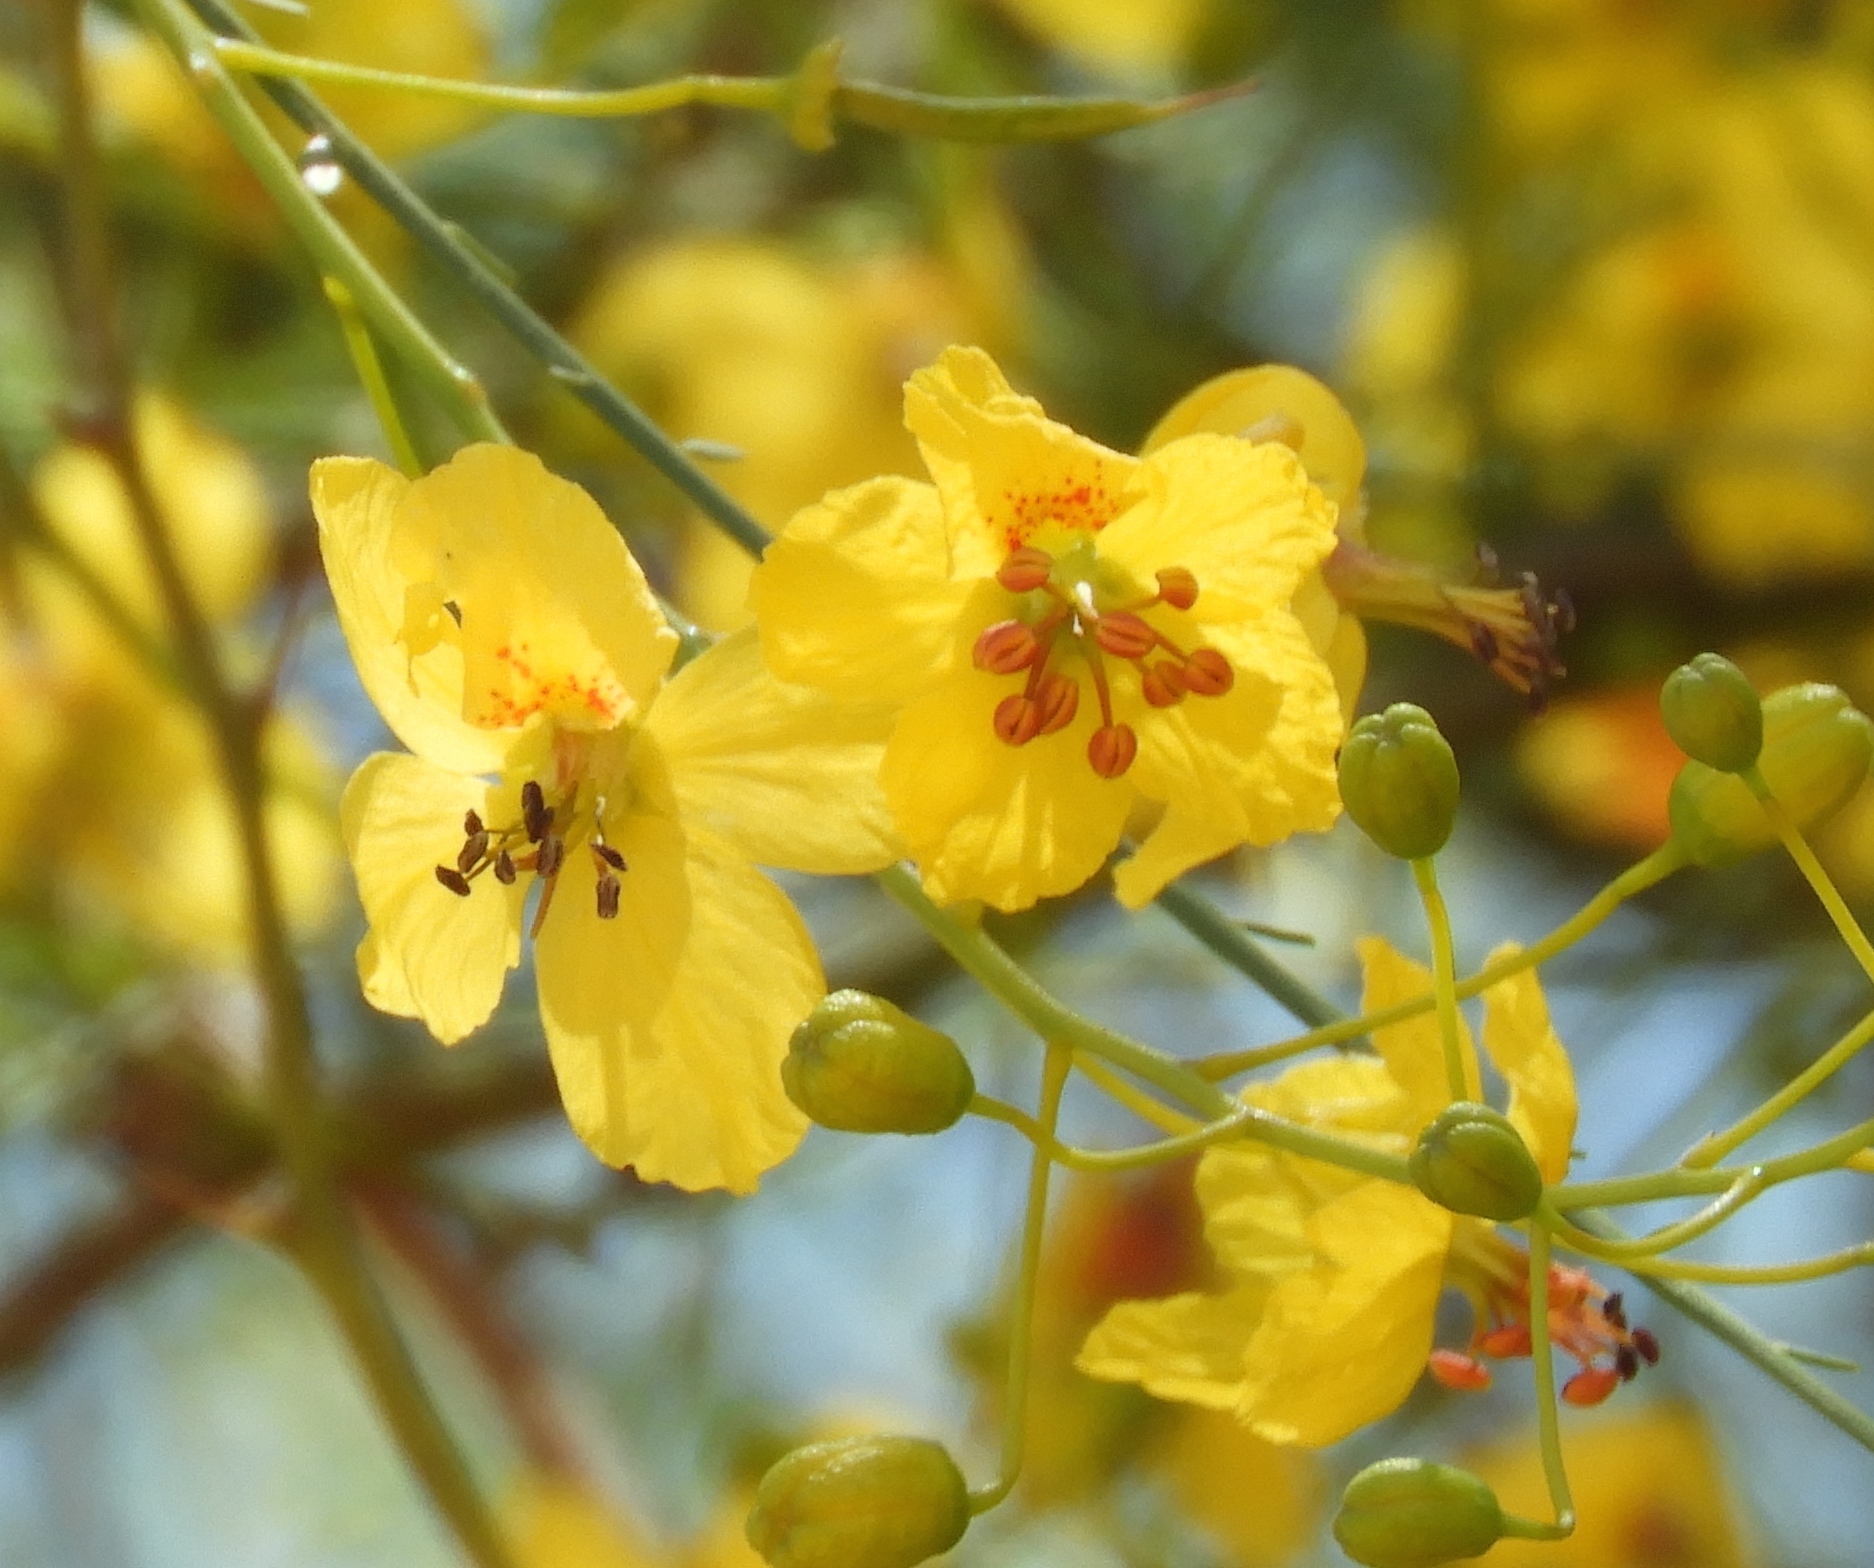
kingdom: Plantae
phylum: Tracheophyta
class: Magnoliopsida
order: Fabales
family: Fabaceae
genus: Parkinsonia
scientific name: Parkinsonia aculeata
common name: Jerusalem thorn
